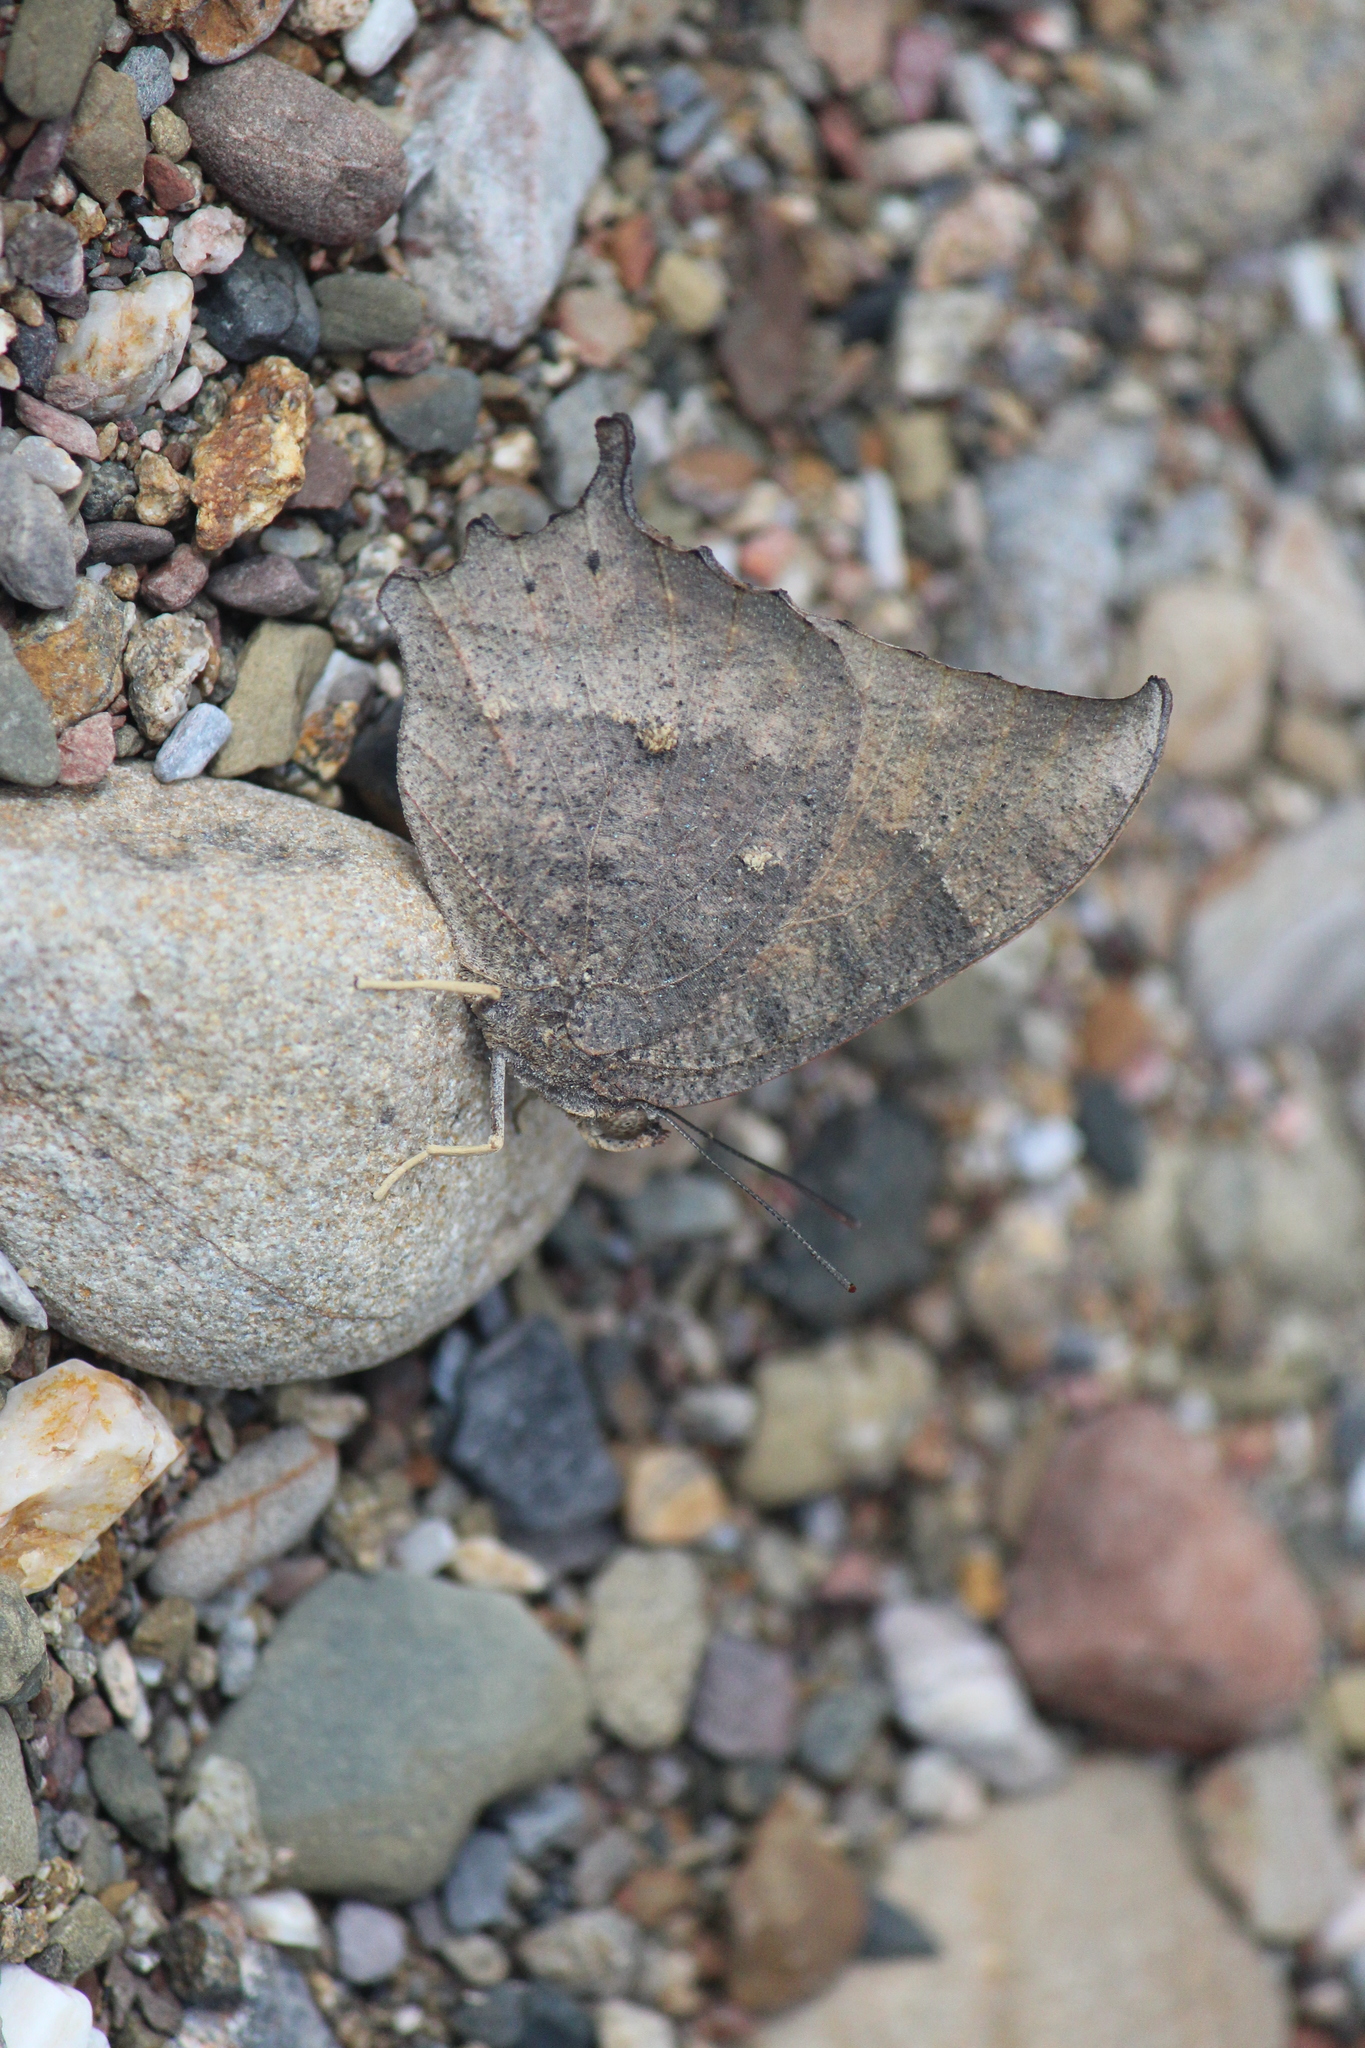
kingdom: Animalia
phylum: Arthropoda
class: Insecta
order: Lepidoptera
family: Nymphalidae
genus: Anaea
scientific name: Anaea aidea
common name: Tropical leafwing
